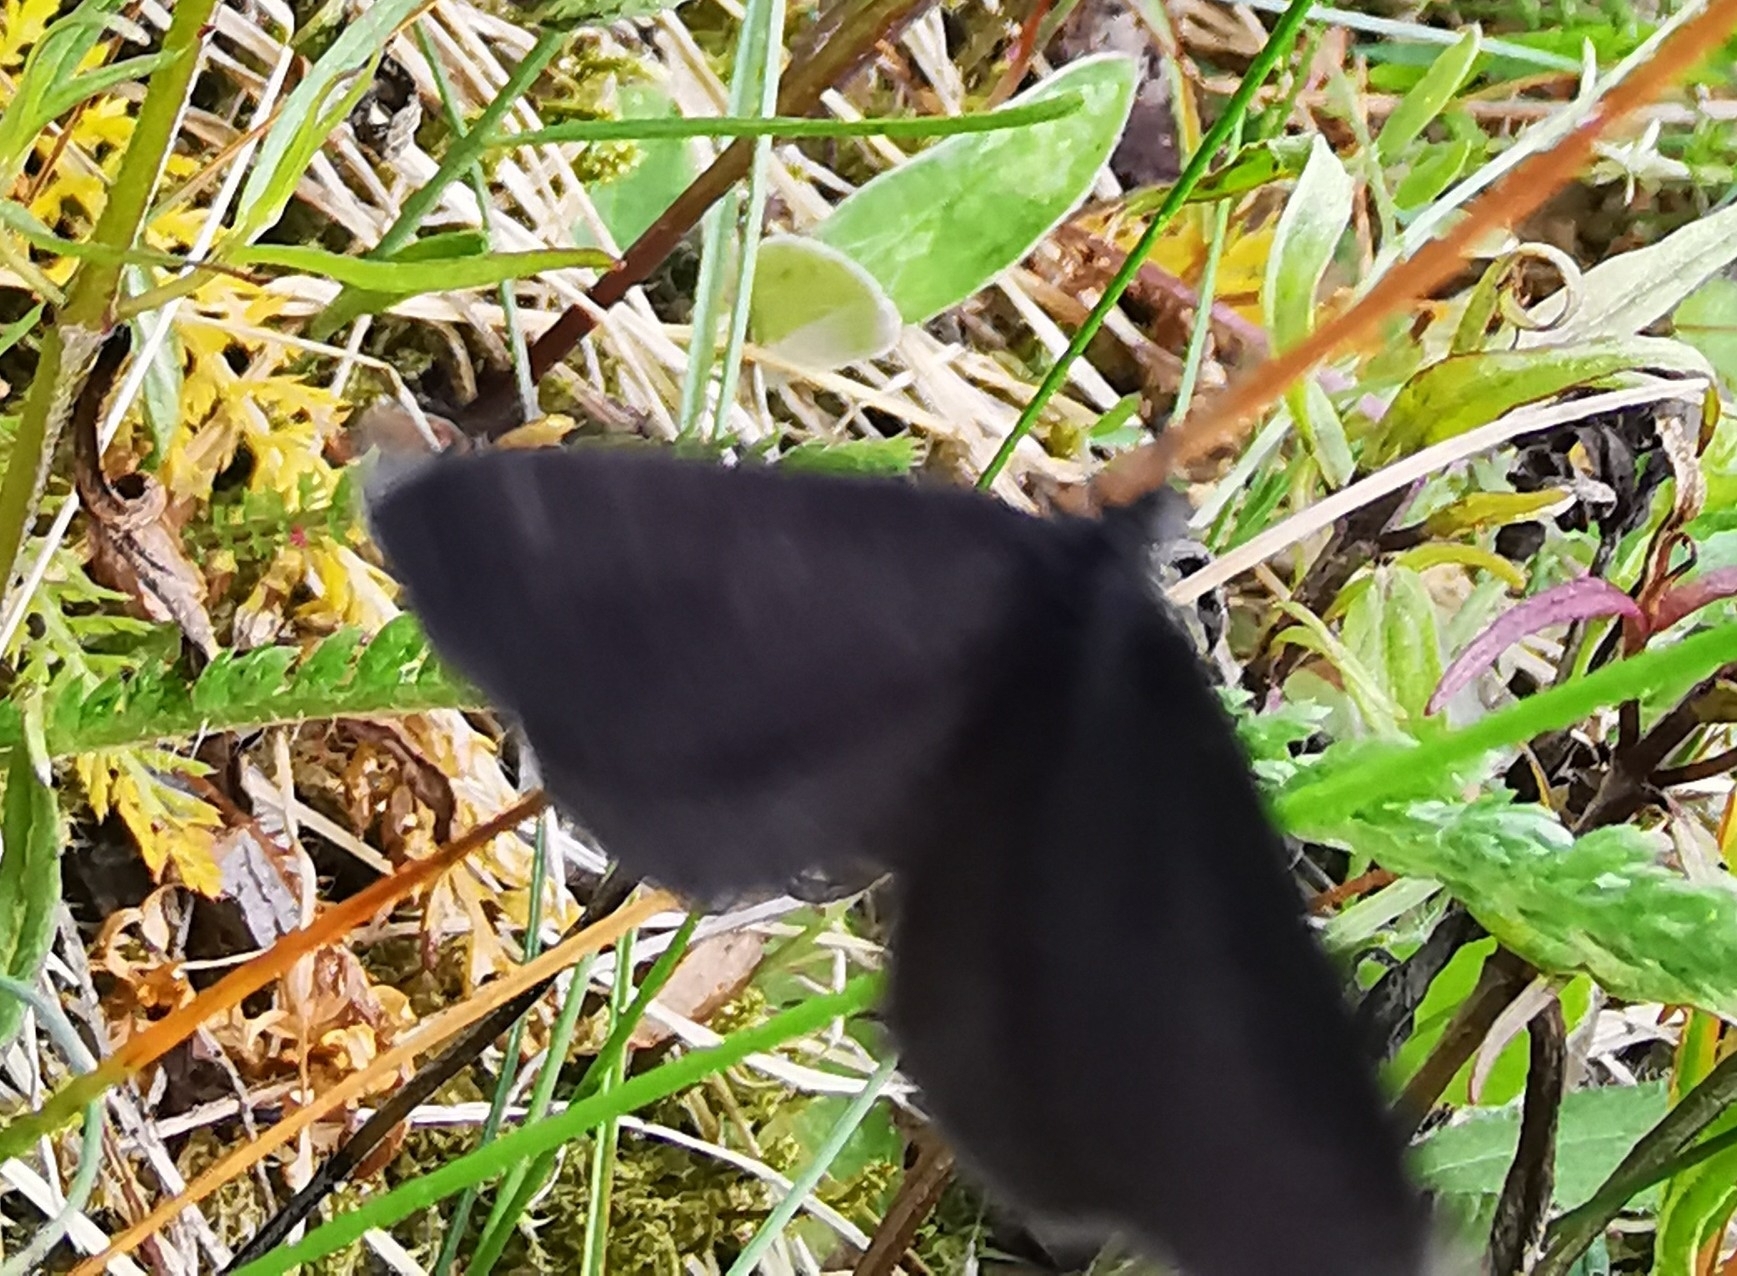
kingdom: Animalia
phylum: Arthropoda
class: Insecta
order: Lepidoptera
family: Geometridae
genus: Odezia
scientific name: Odezia atrata
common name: Chimney sweeper
